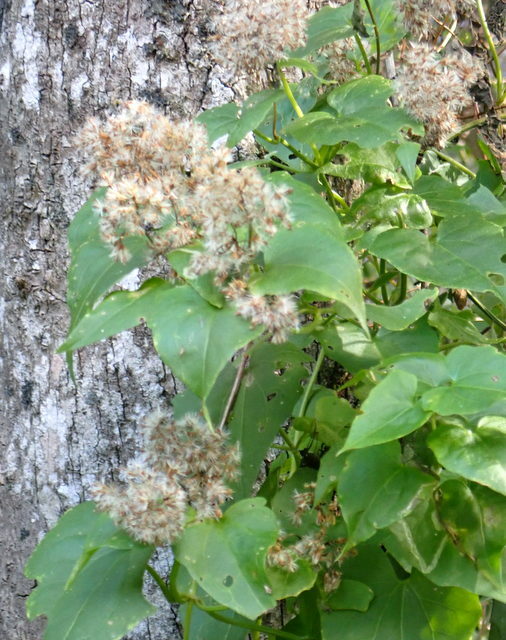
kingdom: Plantae
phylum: Tracheophyta
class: Magnoliopsida
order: Asterales
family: Asteraceae
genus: Mikania
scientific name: Mikania scandens
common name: Climbing hempvine
